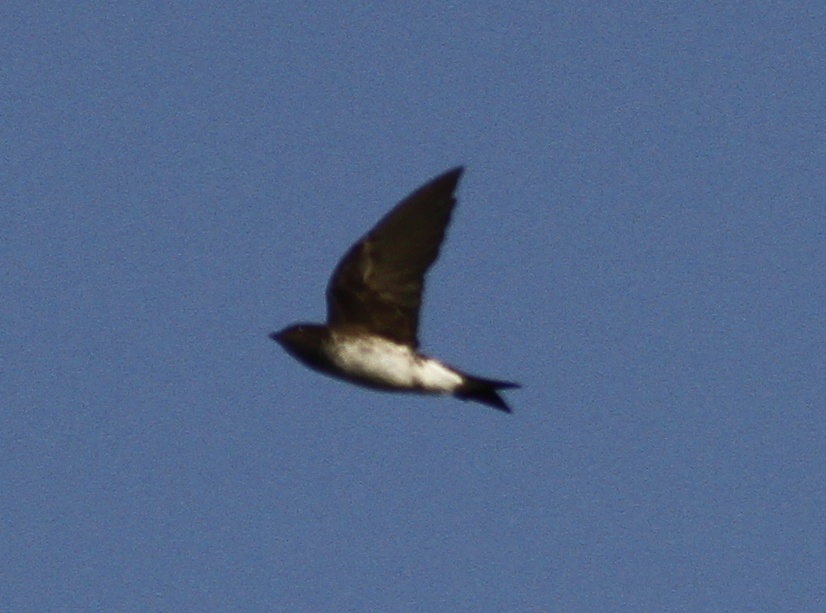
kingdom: Animalia
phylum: Chordata
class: Aves
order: Passeriformes
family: Hirundinidae
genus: Progne
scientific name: Progne chalybea
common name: Grey-breasted martin
